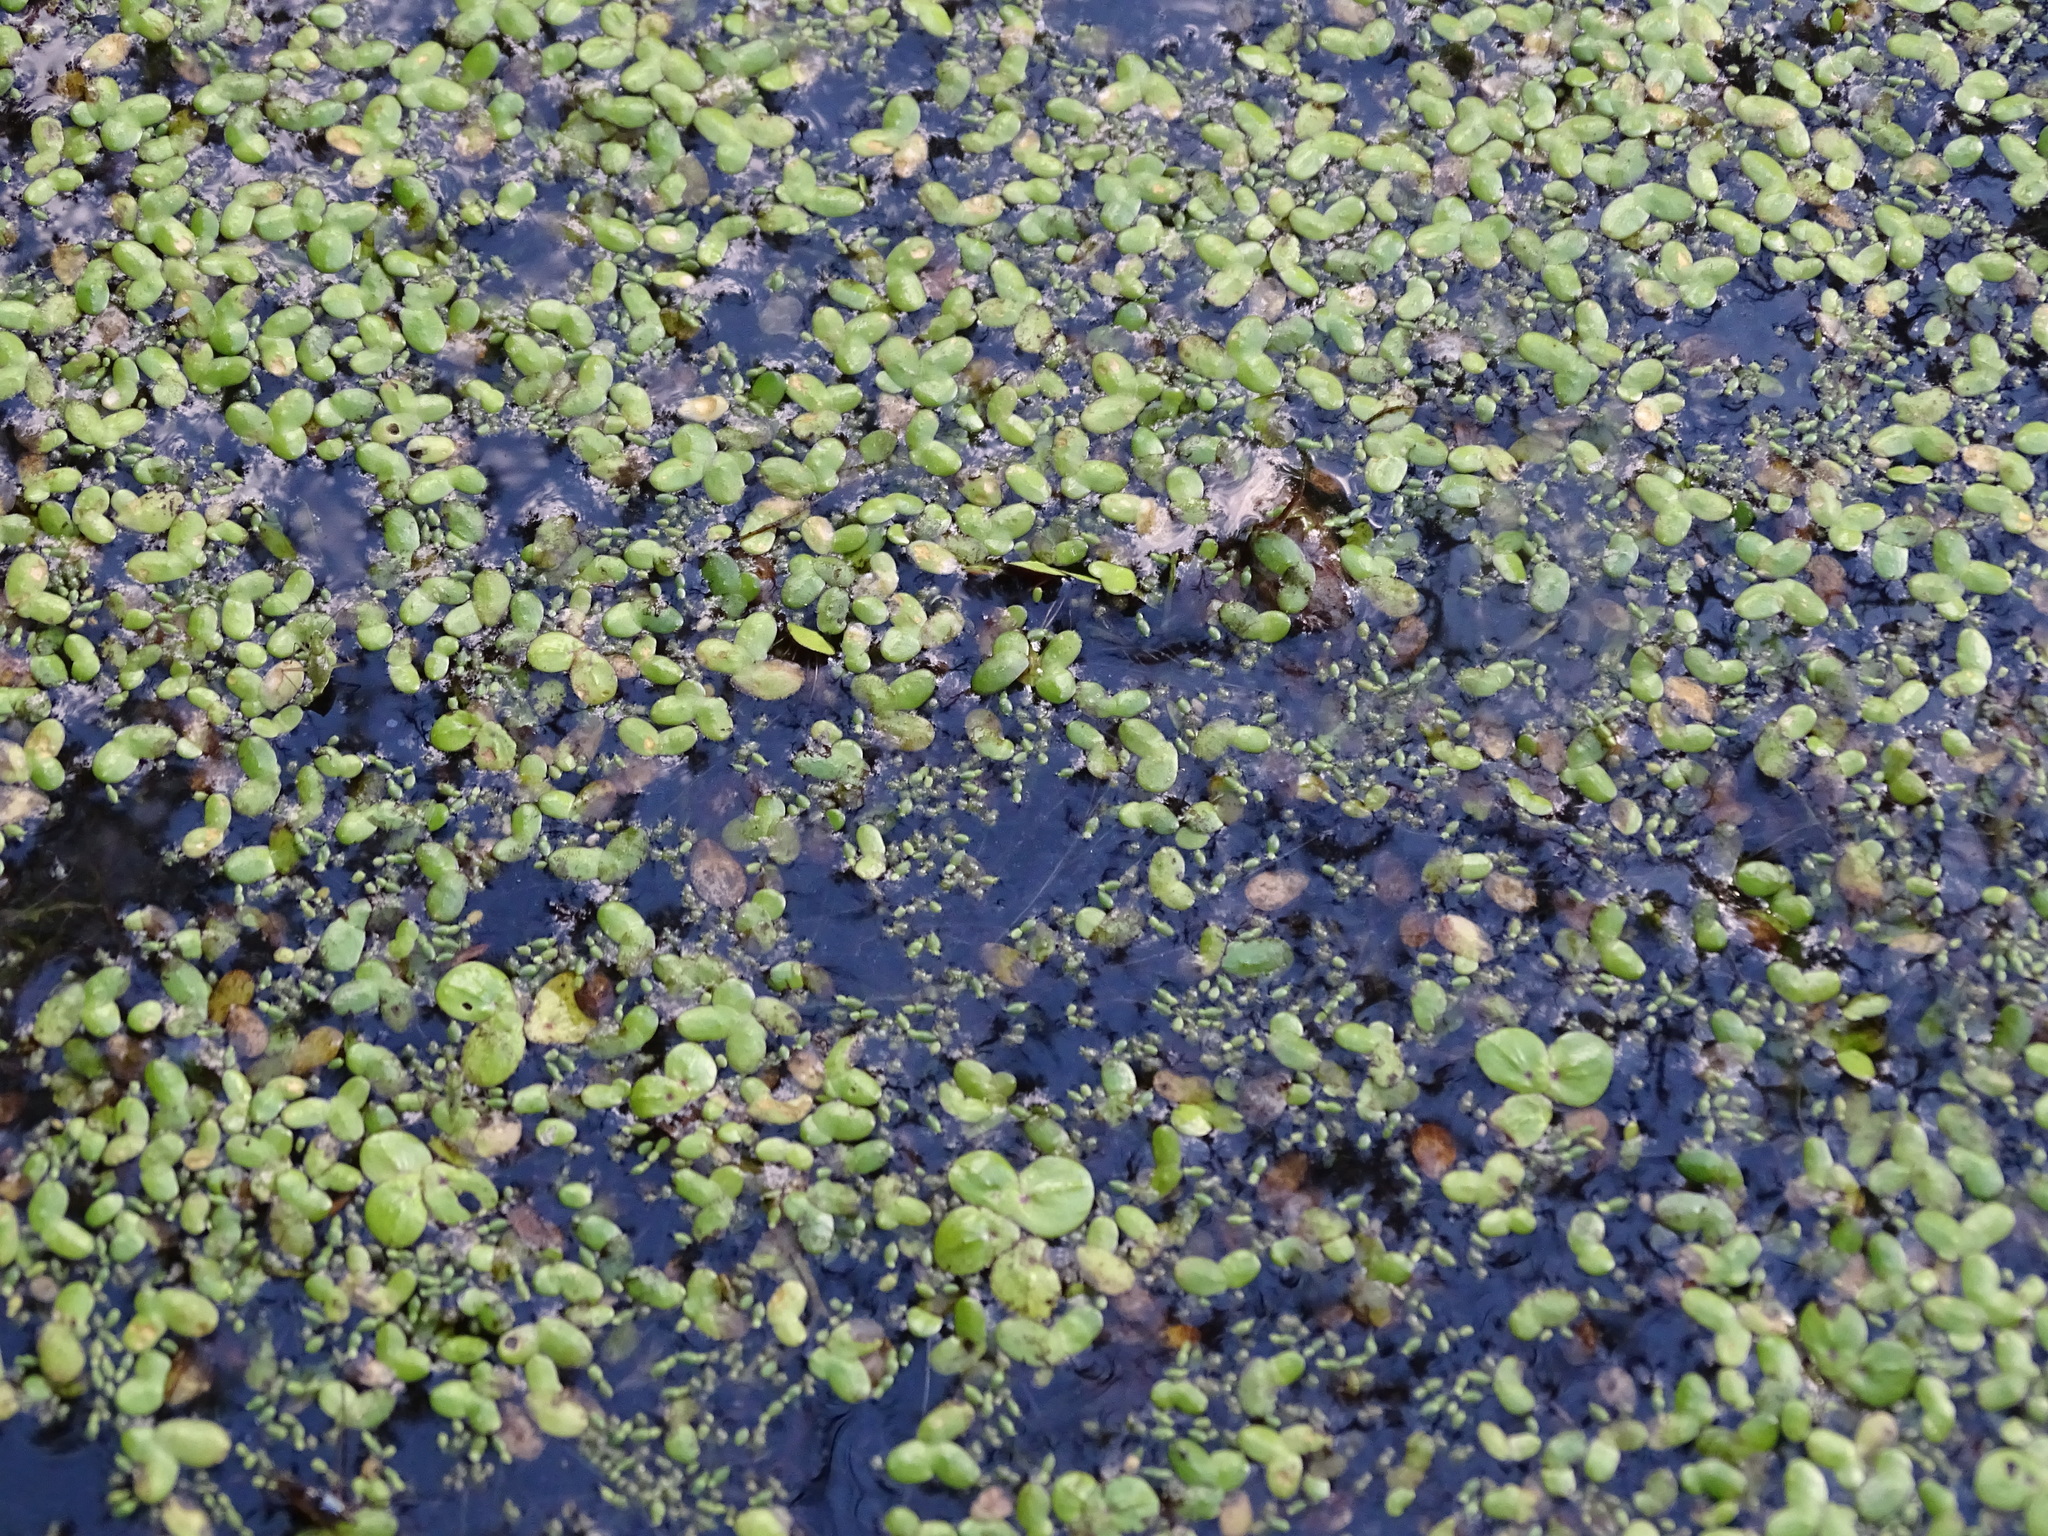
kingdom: Plantae
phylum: Tracheophyta
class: Liliopsida
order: Alismatales
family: Araceae
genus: Lemna
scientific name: Lemna minor
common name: Common duckweed
